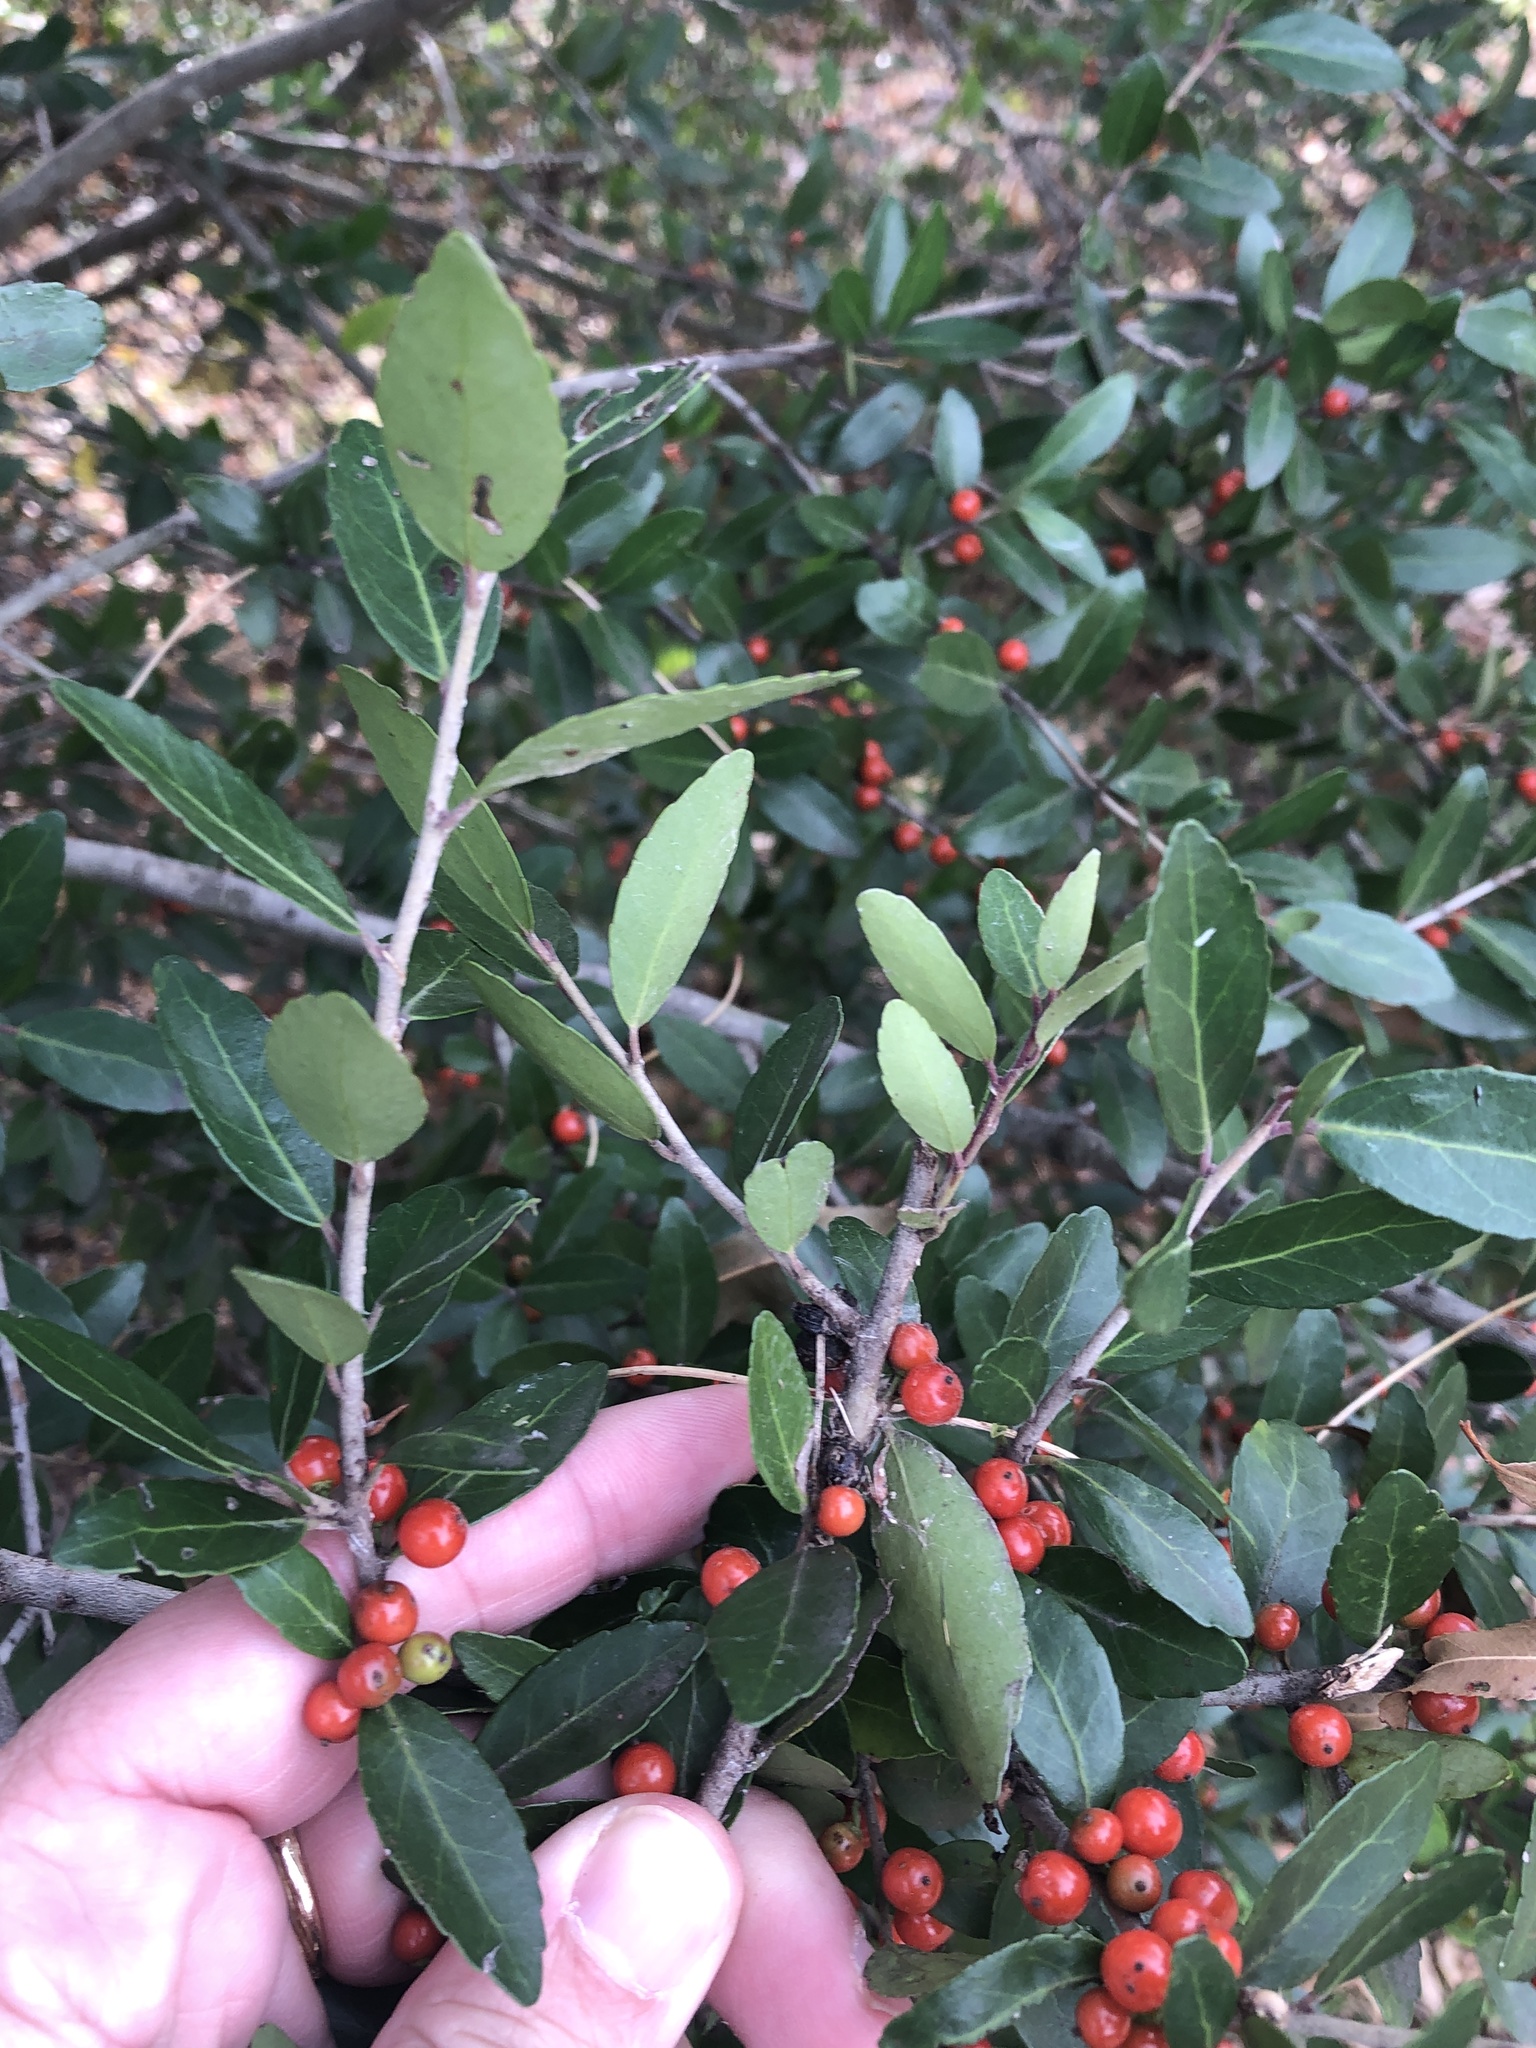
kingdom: Plantae
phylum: Tracheophyta
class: Magnoliopsida
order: Aquifoliales
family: Aquifoliaceae
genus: Ilex
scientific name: Ilex vomitoria
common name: Yaupon holly
